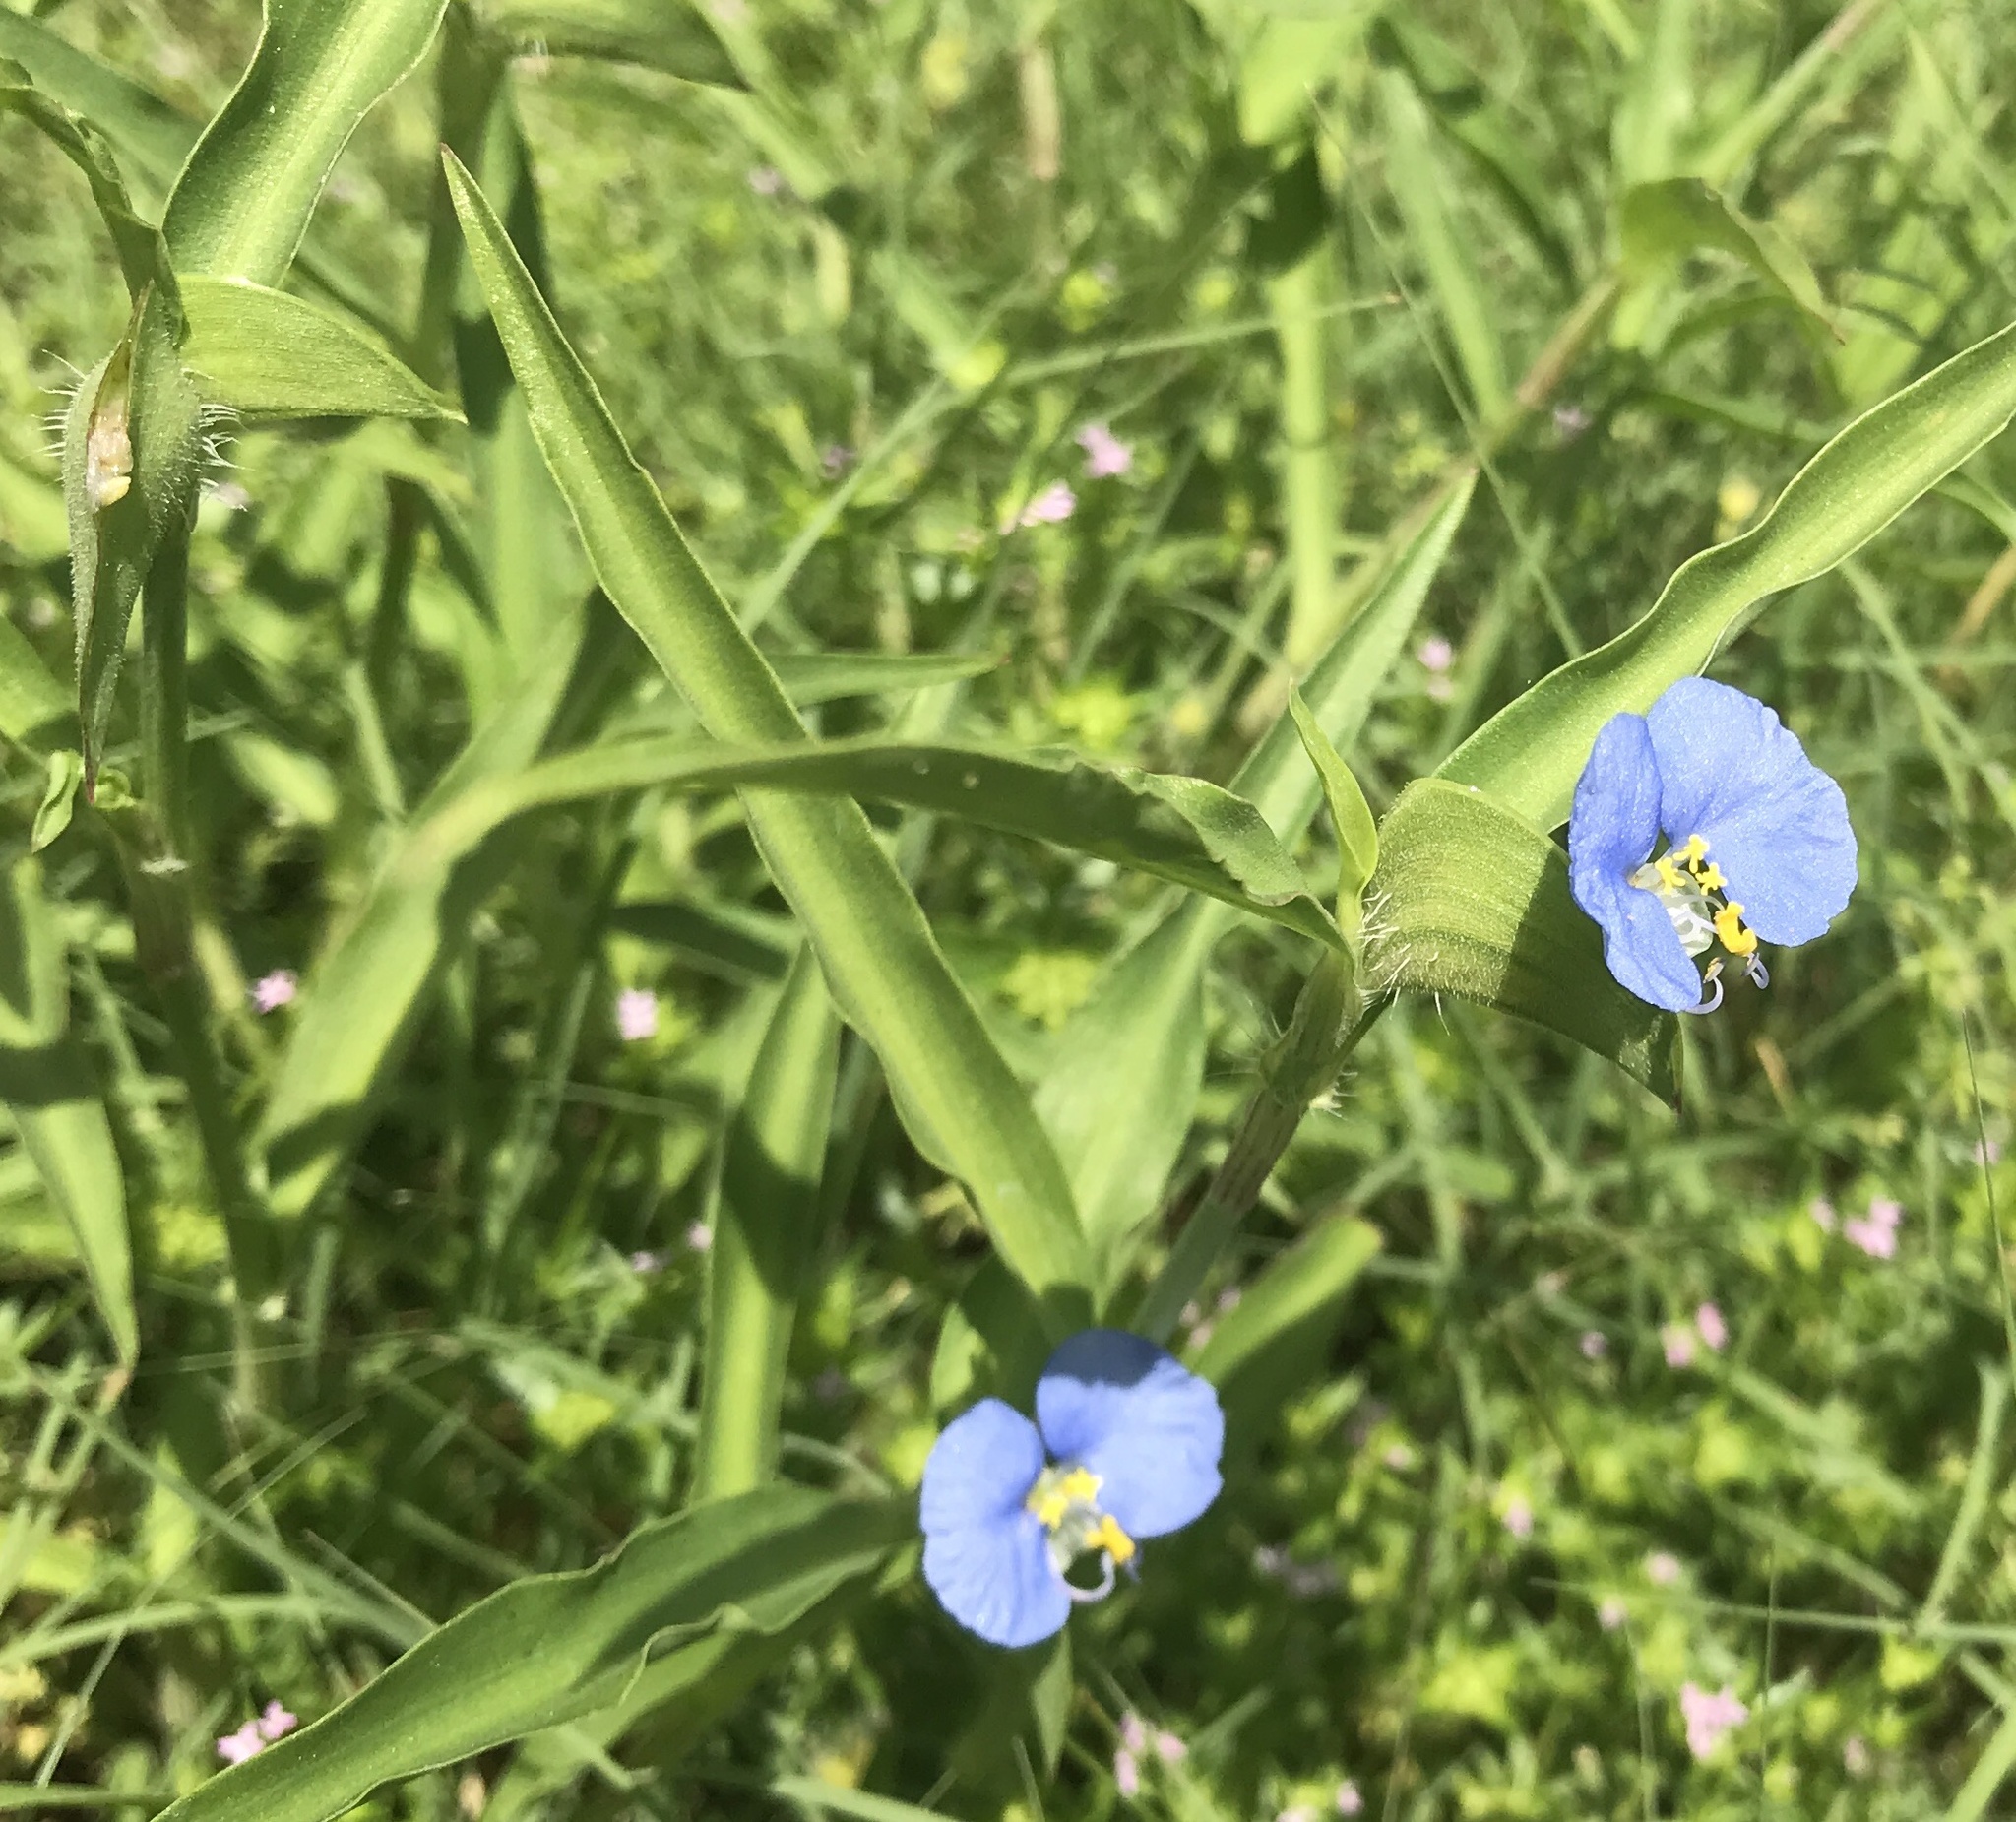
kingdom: Plantae
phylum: Tracheophyta
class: Liliopsida
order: Commelinales
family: Commelinaceae
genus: Commelina
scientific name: Commelina erecta
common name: Blousel blommetjie
